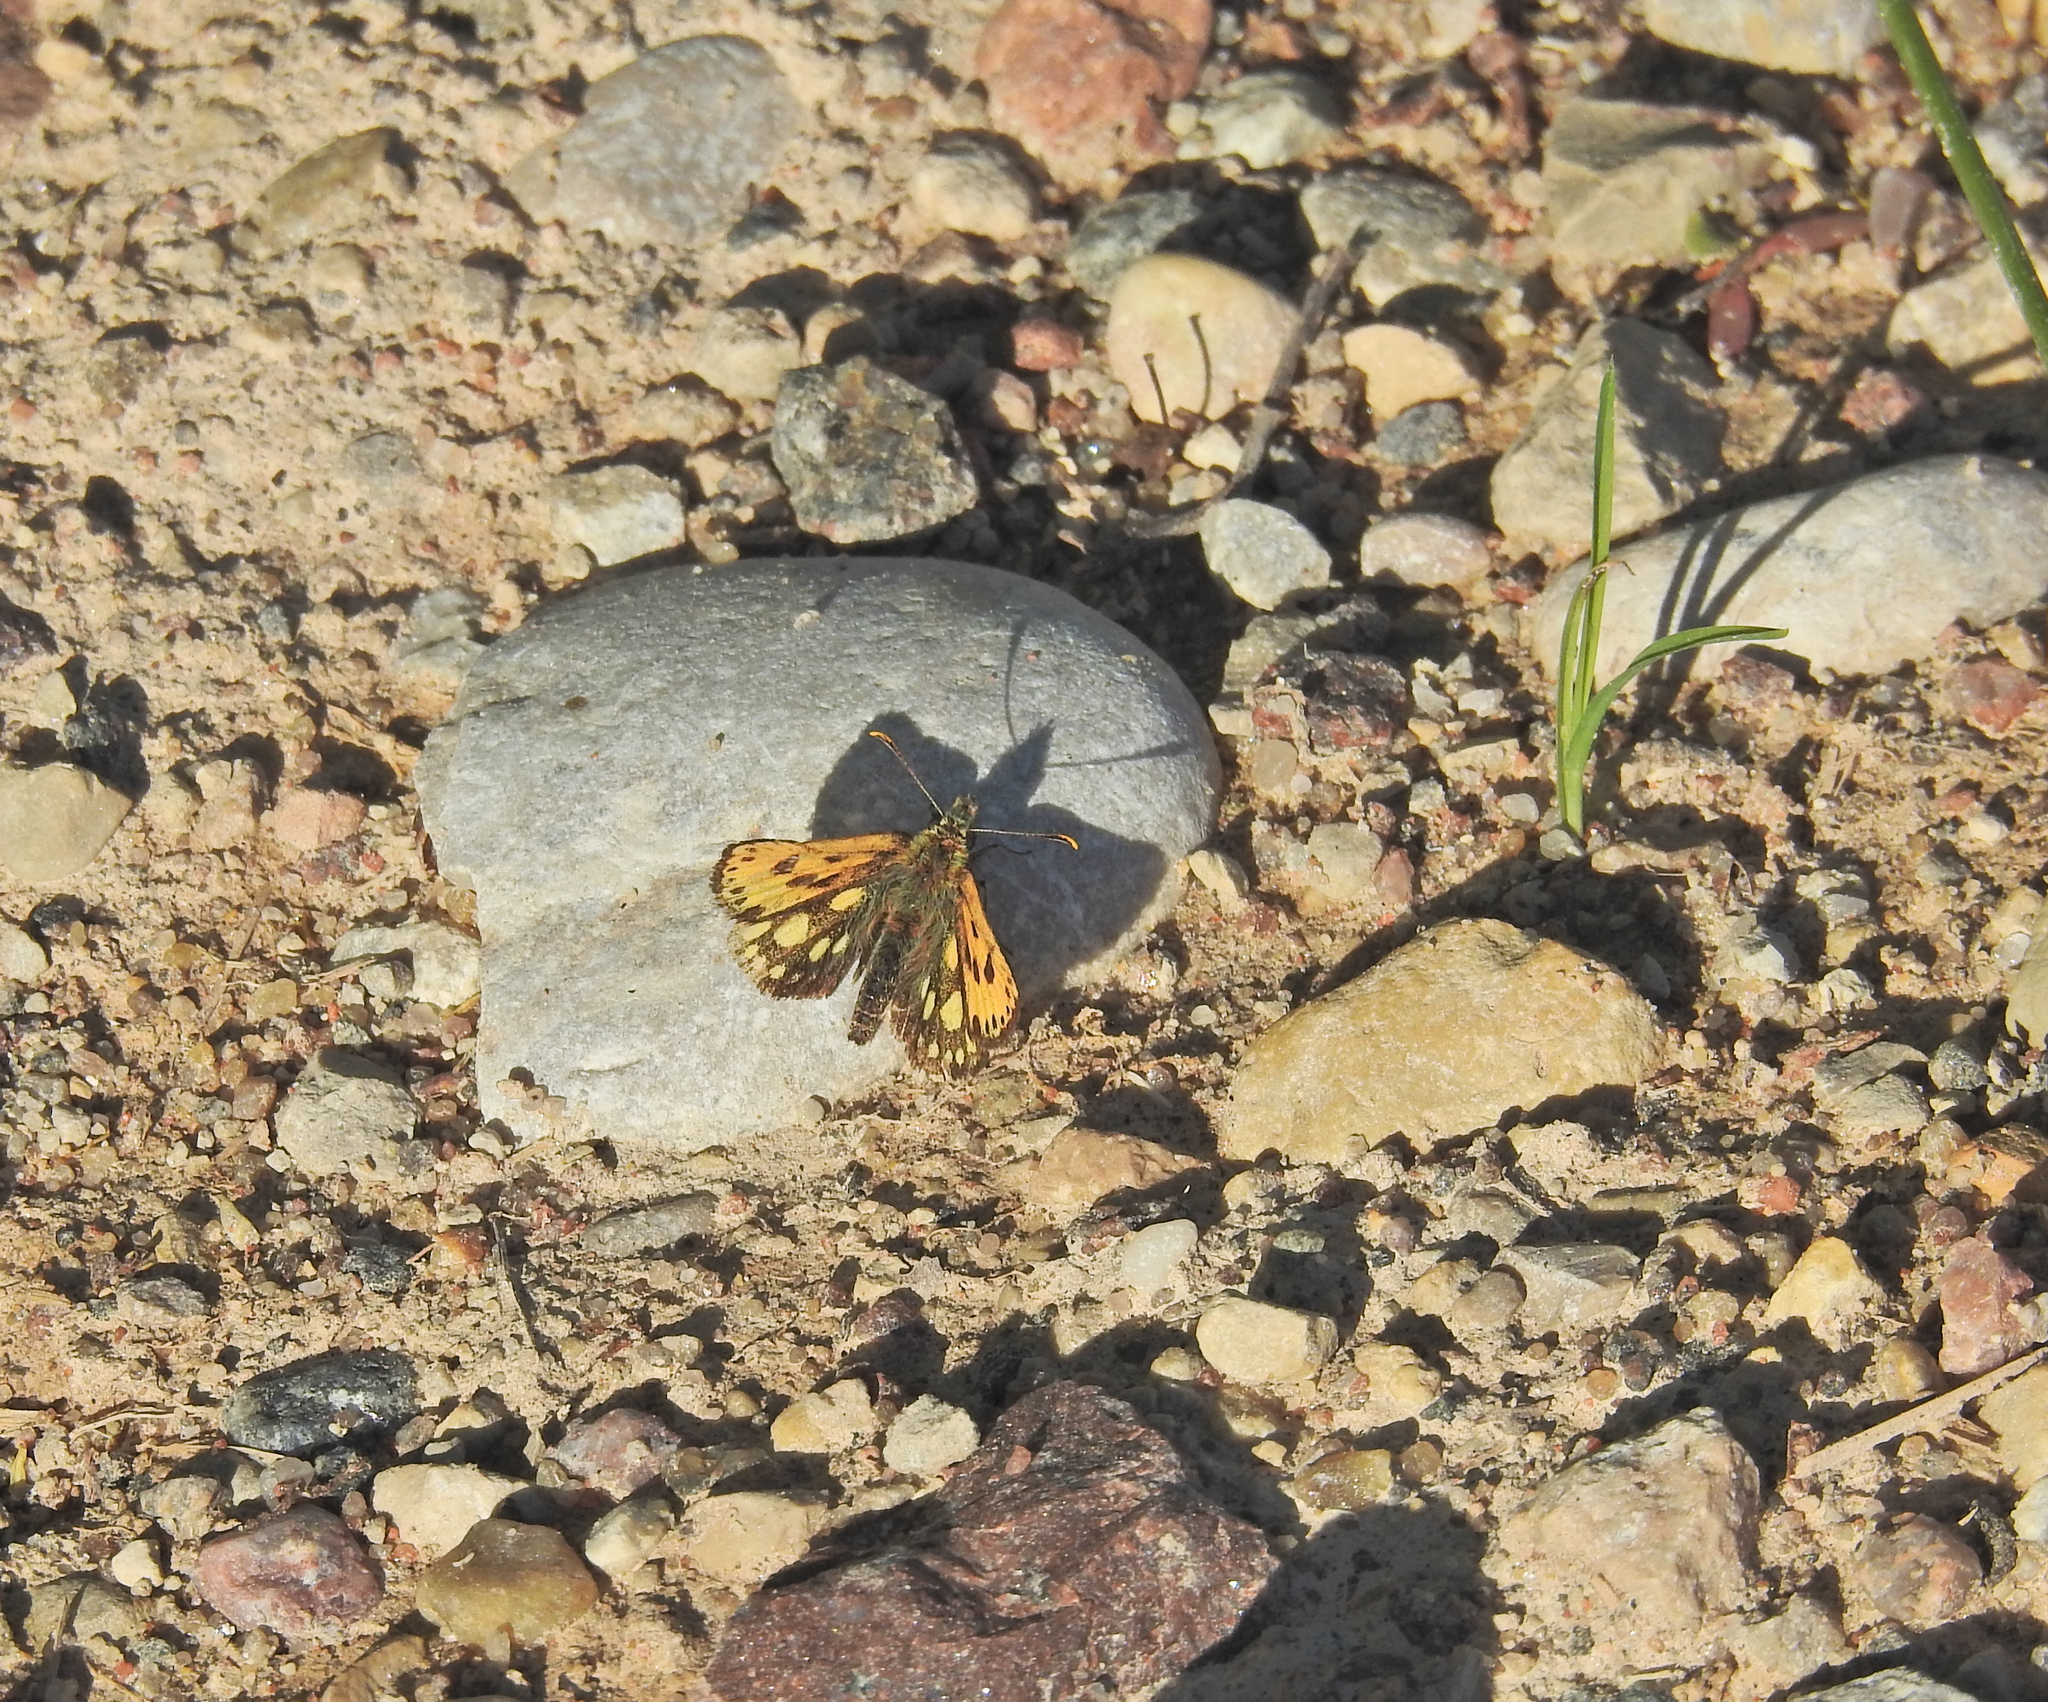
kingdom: Animalia
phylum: Arthropoda
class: Insecta
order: Lepidoptera
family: Hesperiidae
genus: Carterocephalus
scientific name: Carterocephalus silvicola
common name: Northern chequered skipper
